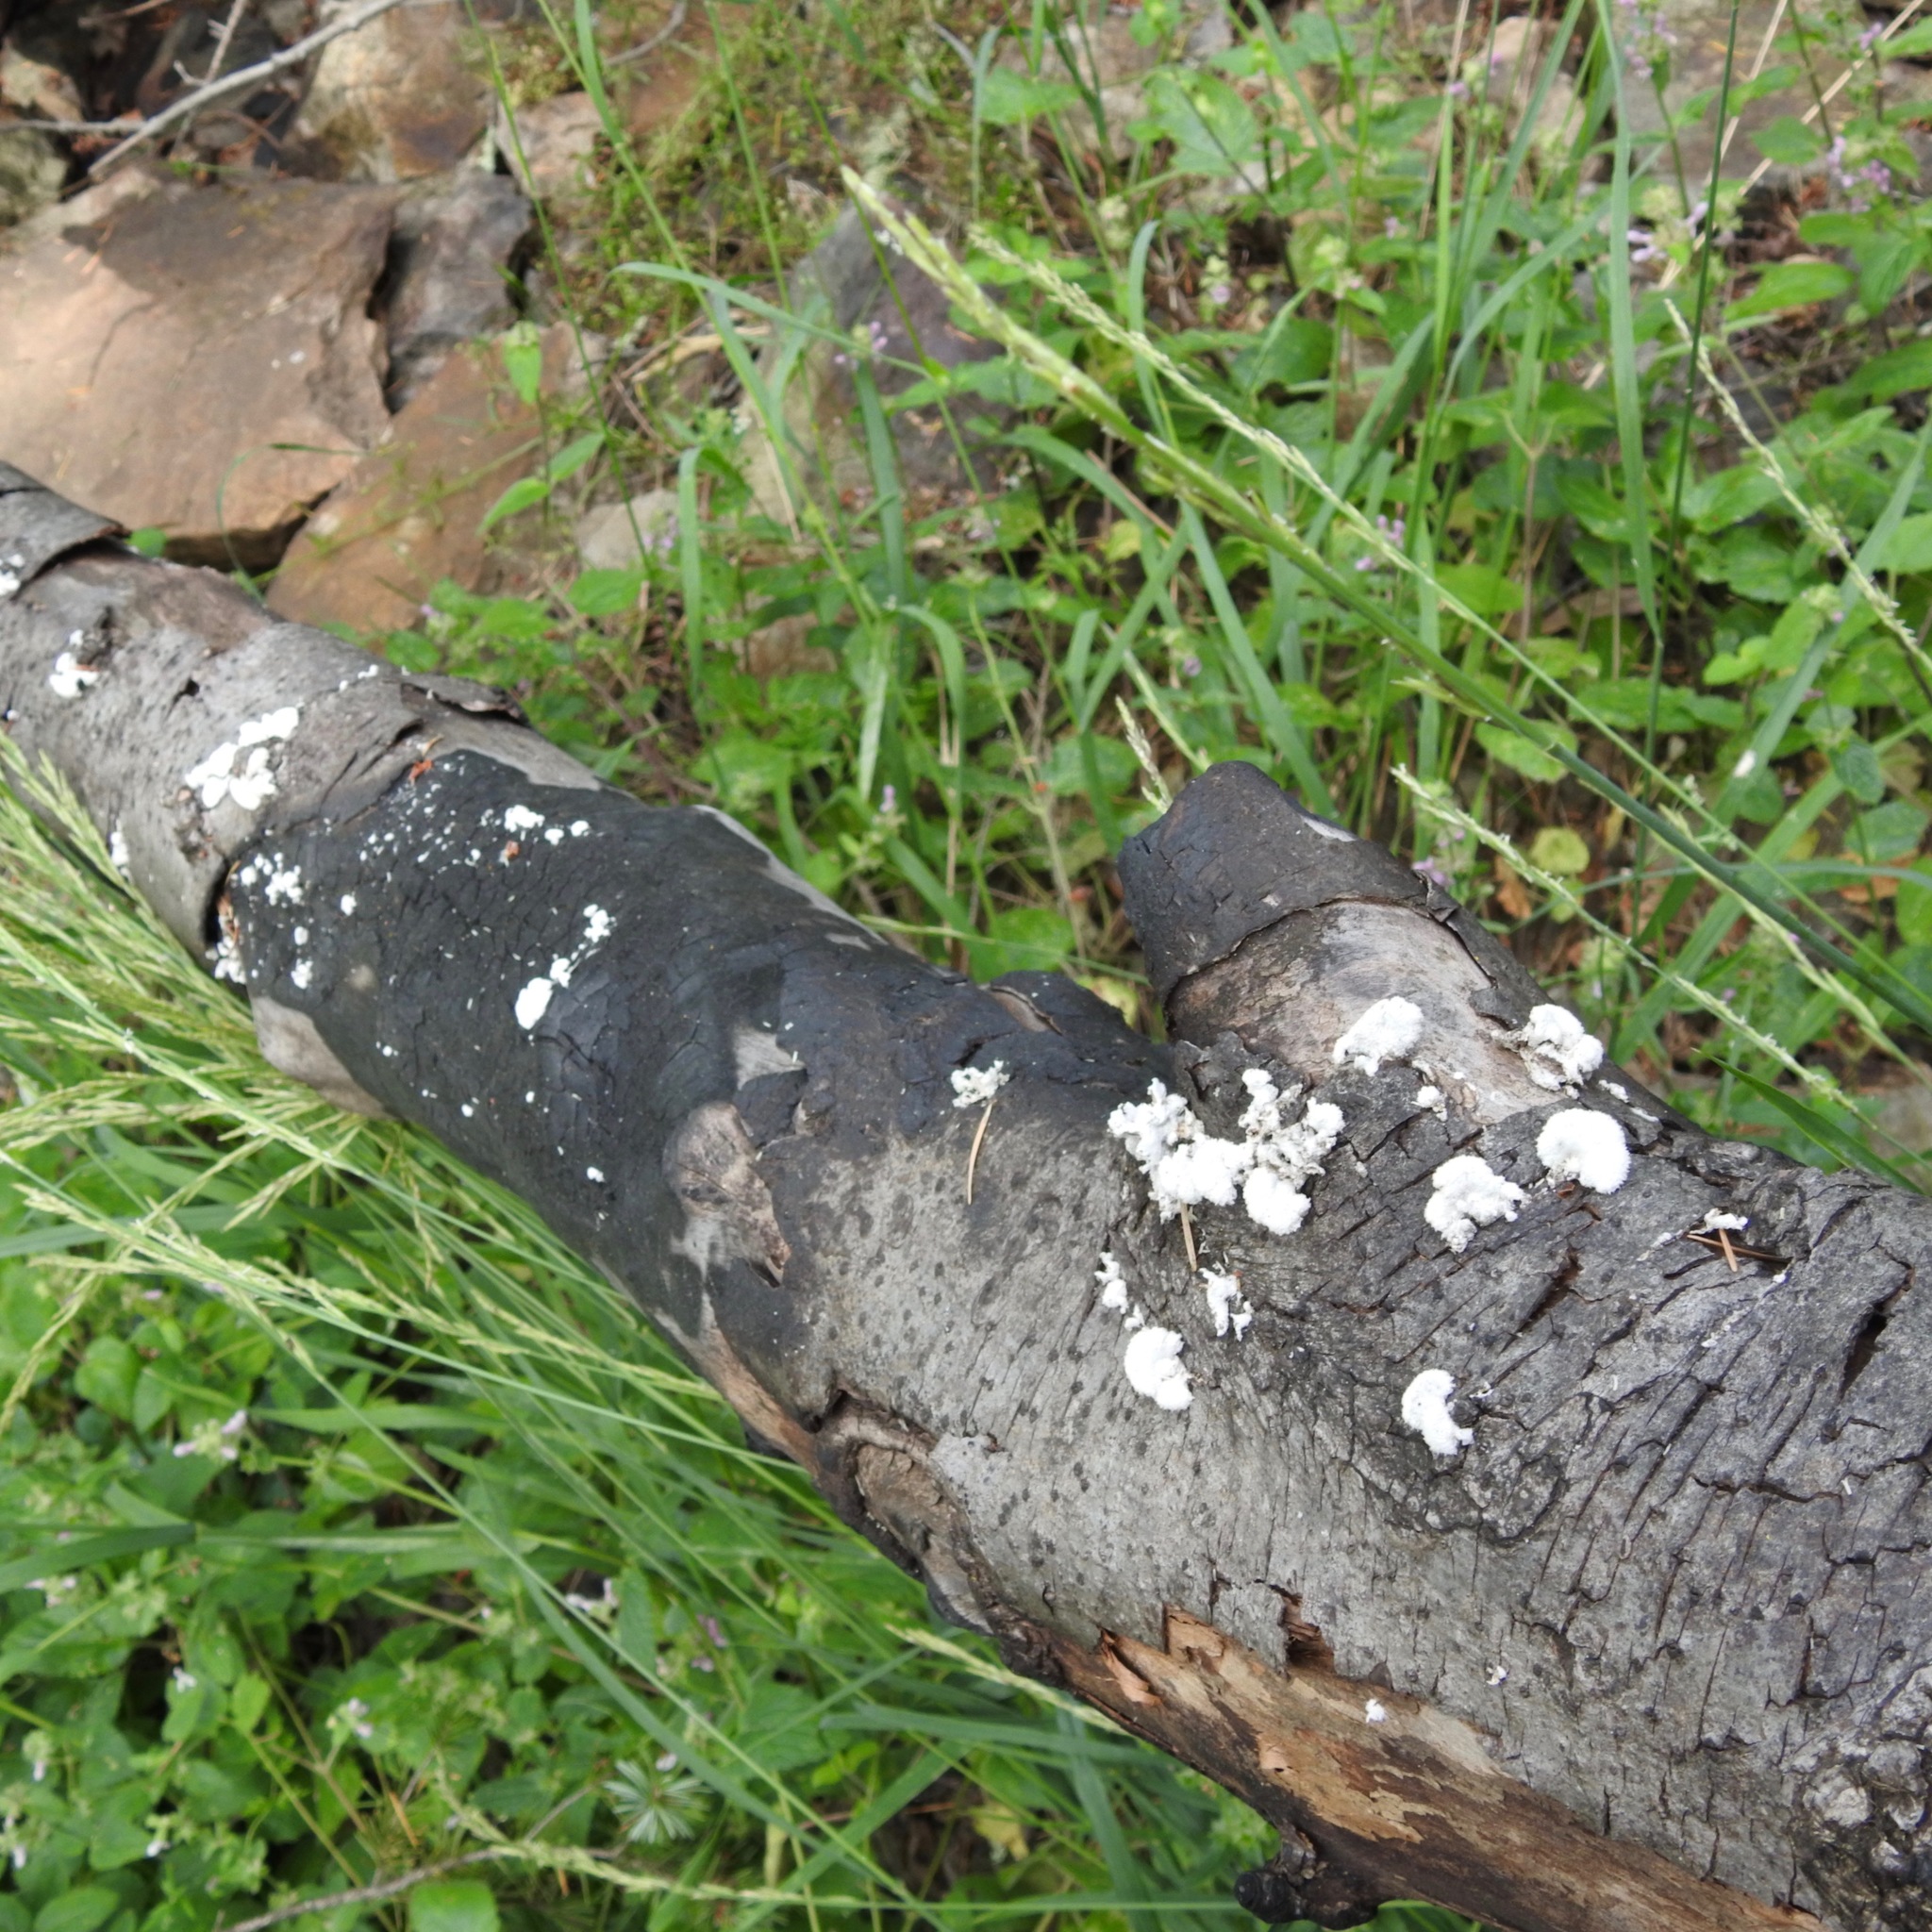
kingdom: Fungi
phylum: Basidiomycota
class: Agaricomycetes
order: Agaricales
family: Schizophyllaceae
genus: Schizophyllum
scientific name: Schizophyllum commune
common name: Common porecrust
